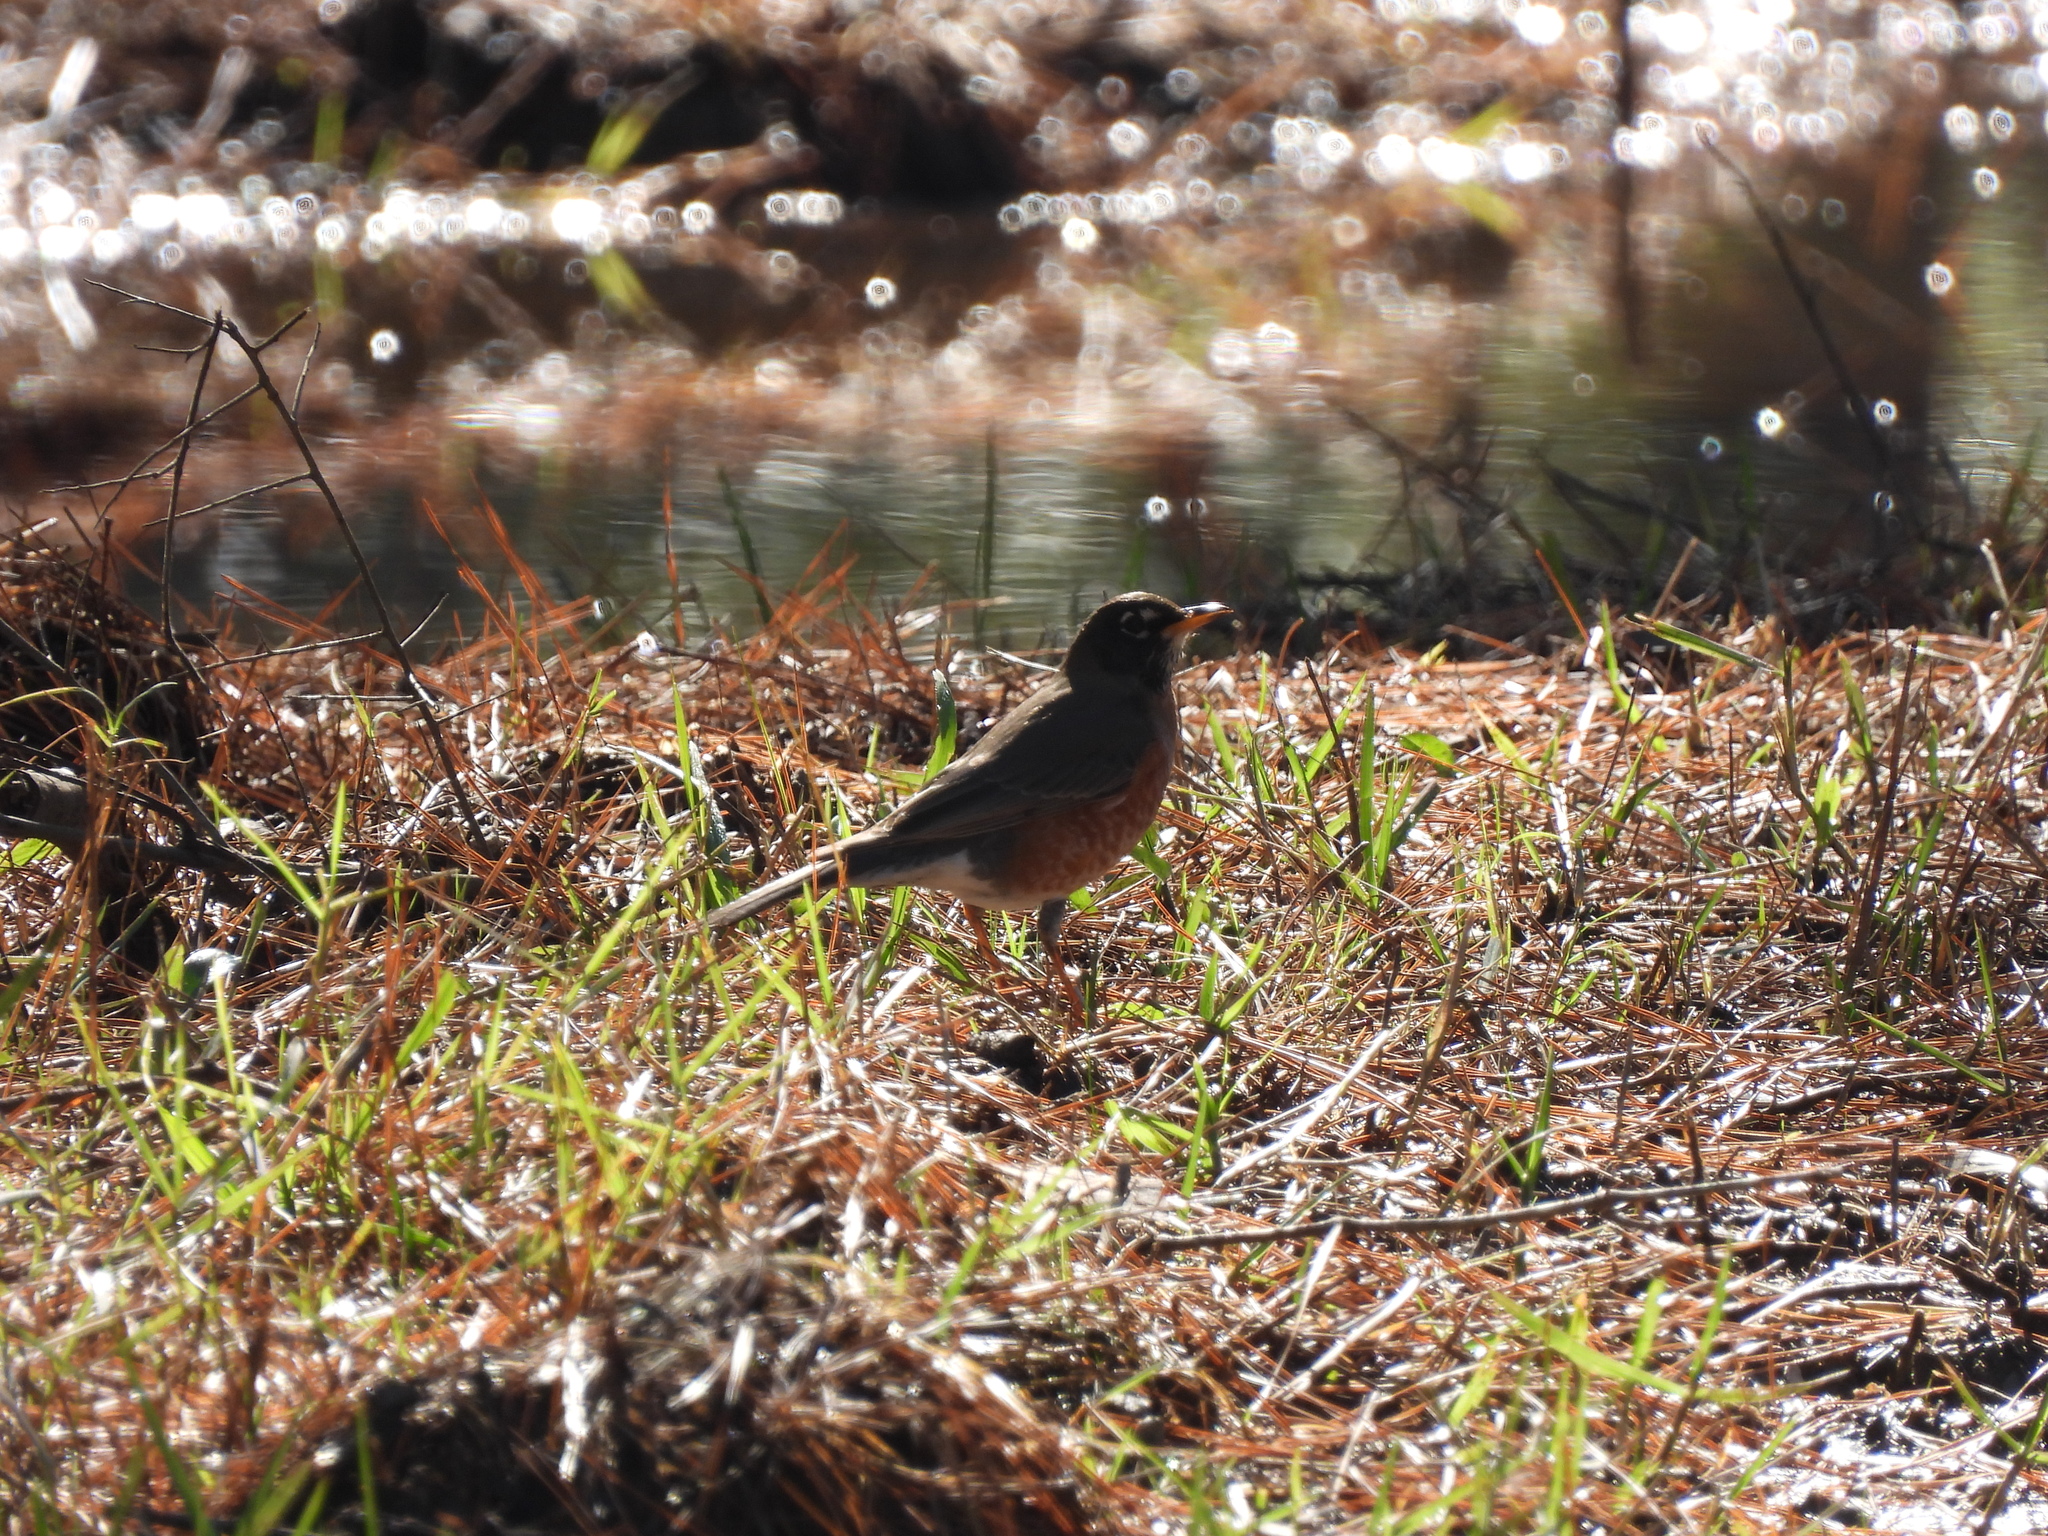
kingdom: Animalia
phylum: Chordata
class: Aves
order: Passeriformes
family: Turdidae
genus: Turdus
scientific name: Turdus migratorius
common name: American robin
